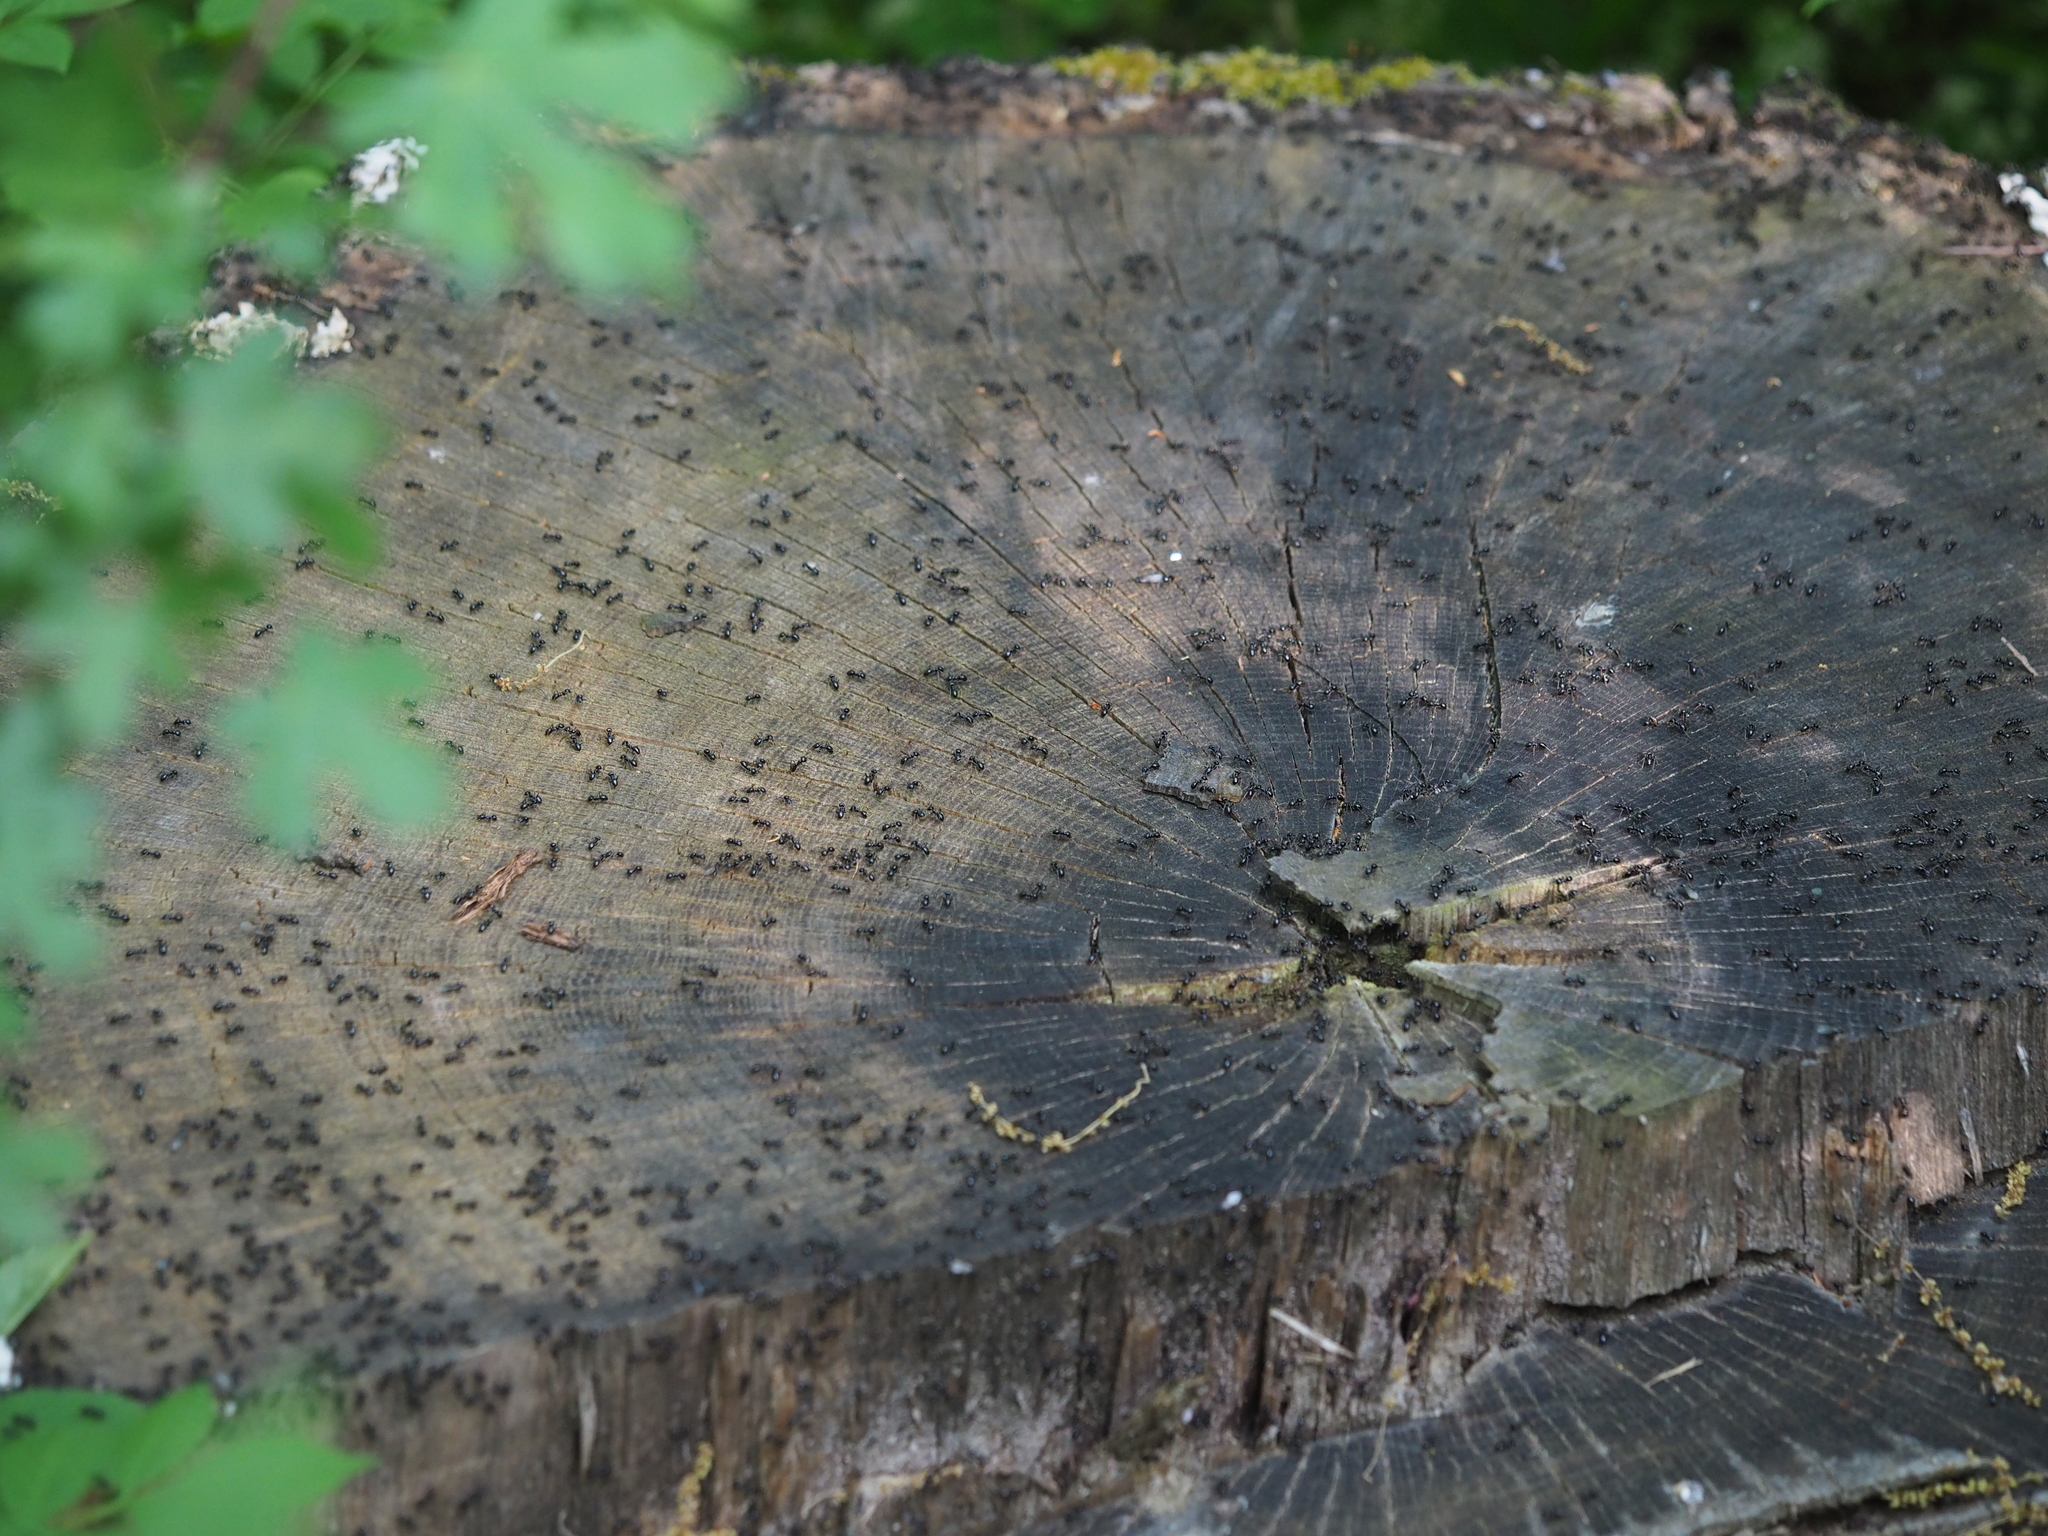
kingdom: Animalia
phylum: Arthropoda
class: Insecta
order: Hymenoptera
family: Formicidae
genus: Lasius
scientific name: Lasius fuliginosus
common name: Jet ant
